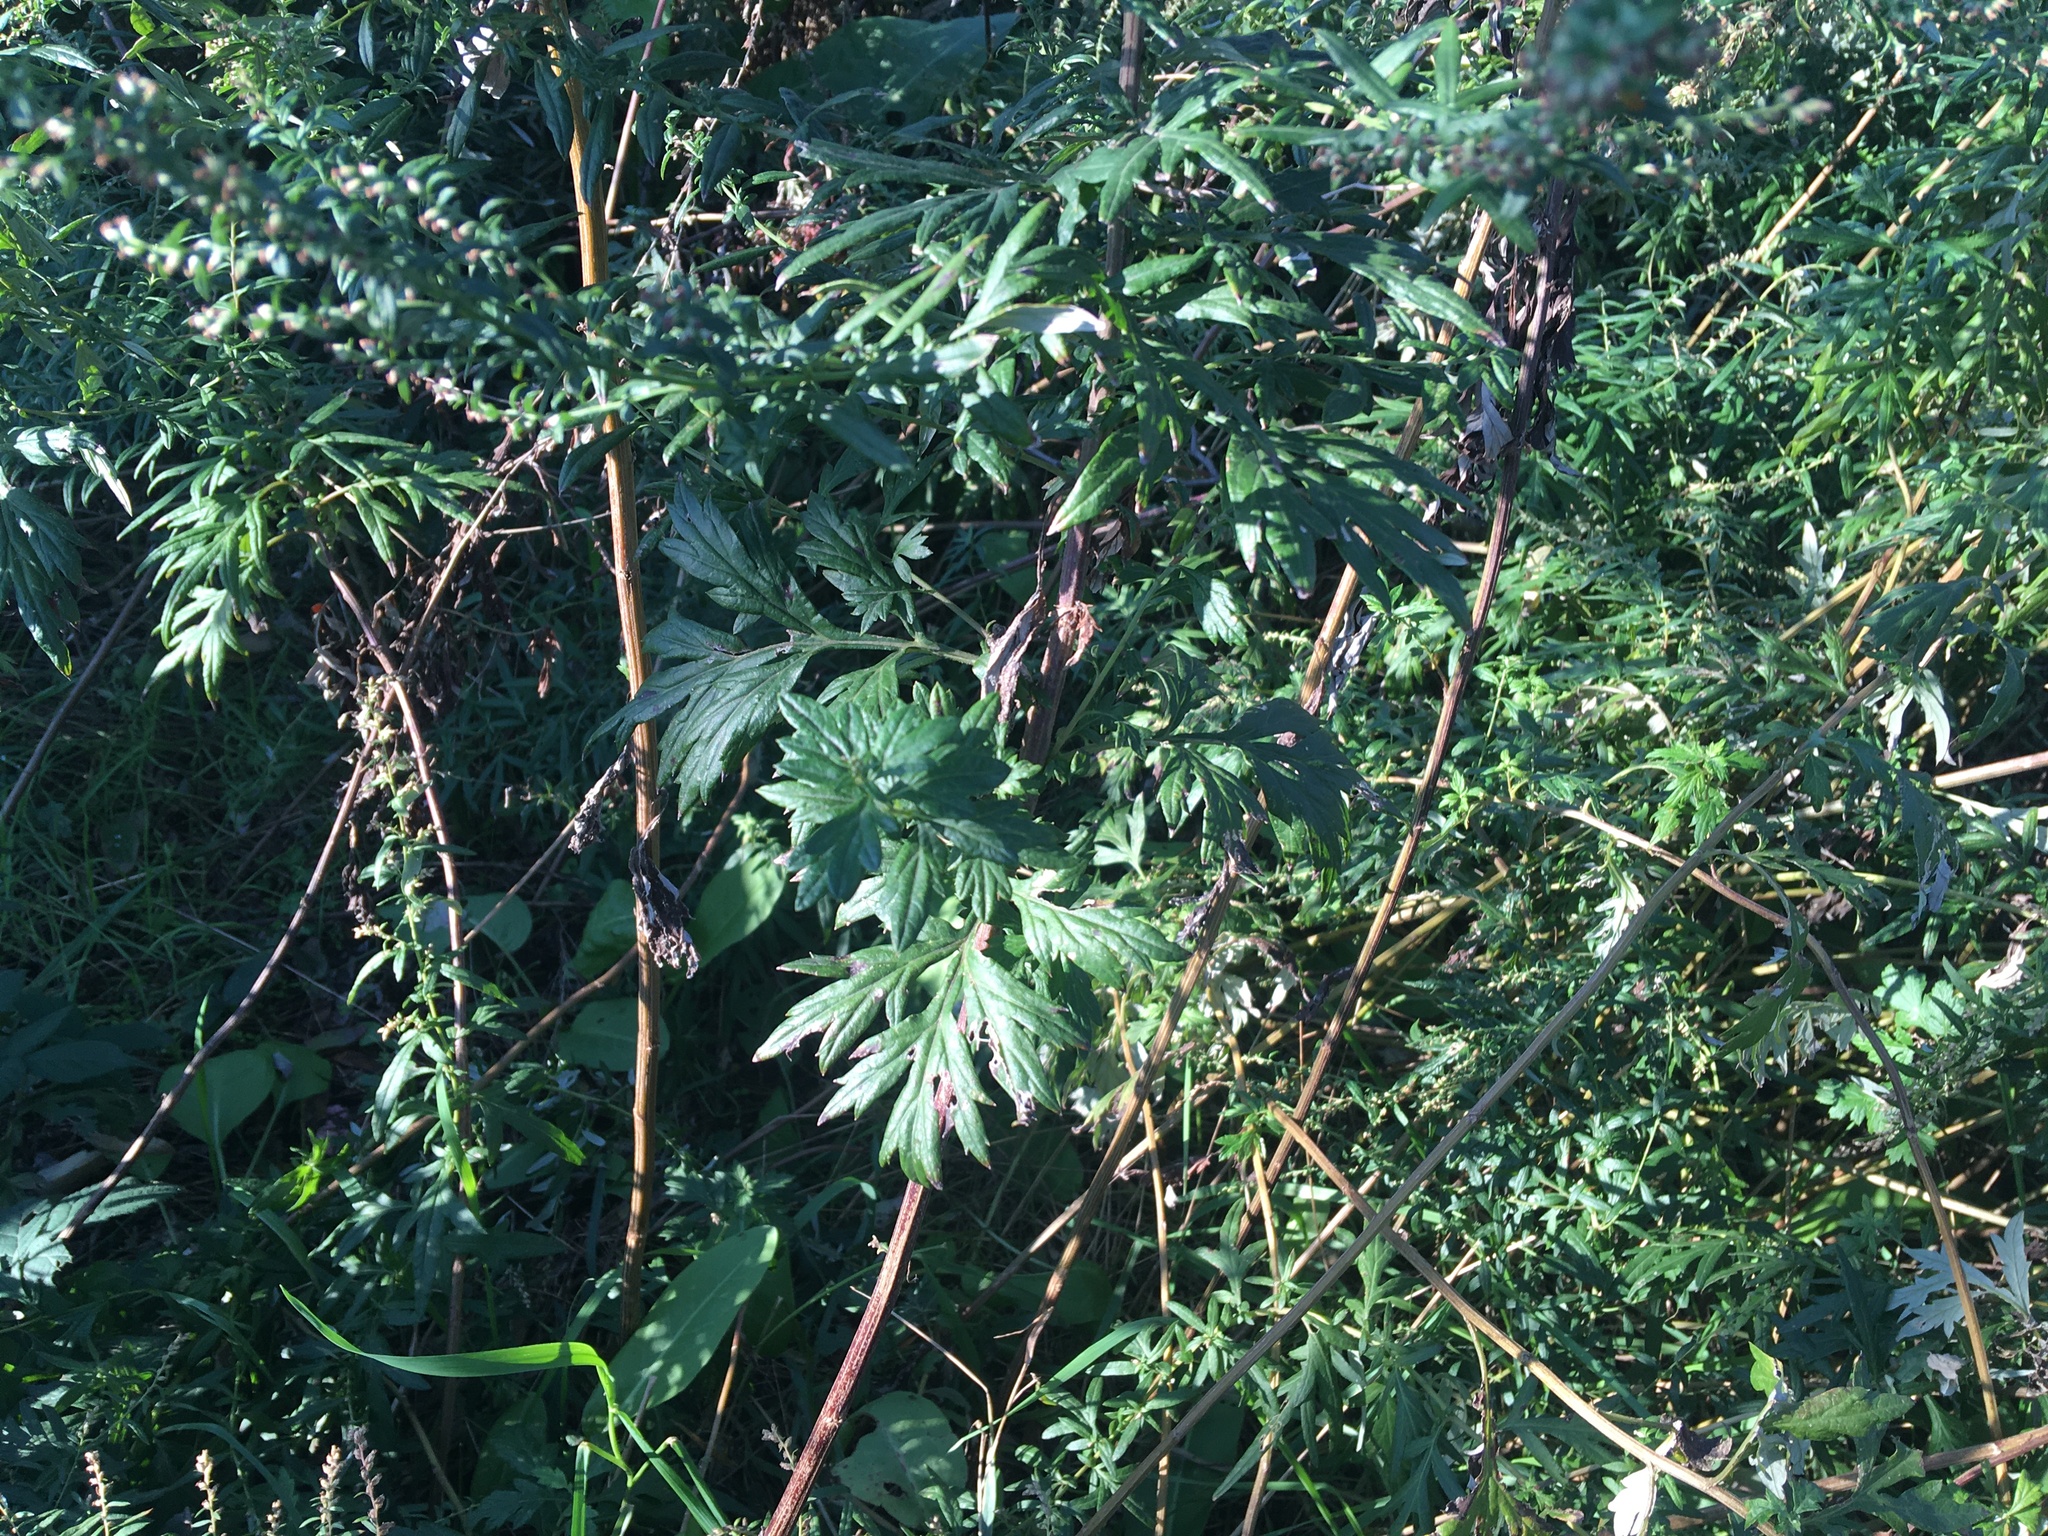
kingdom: Plantae
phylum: Tracheophyta
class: Magnoliopsida
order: Asterales
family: Asteraceae
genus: Artemisia
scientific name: Artemisia vulgaris
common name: Mugwort
